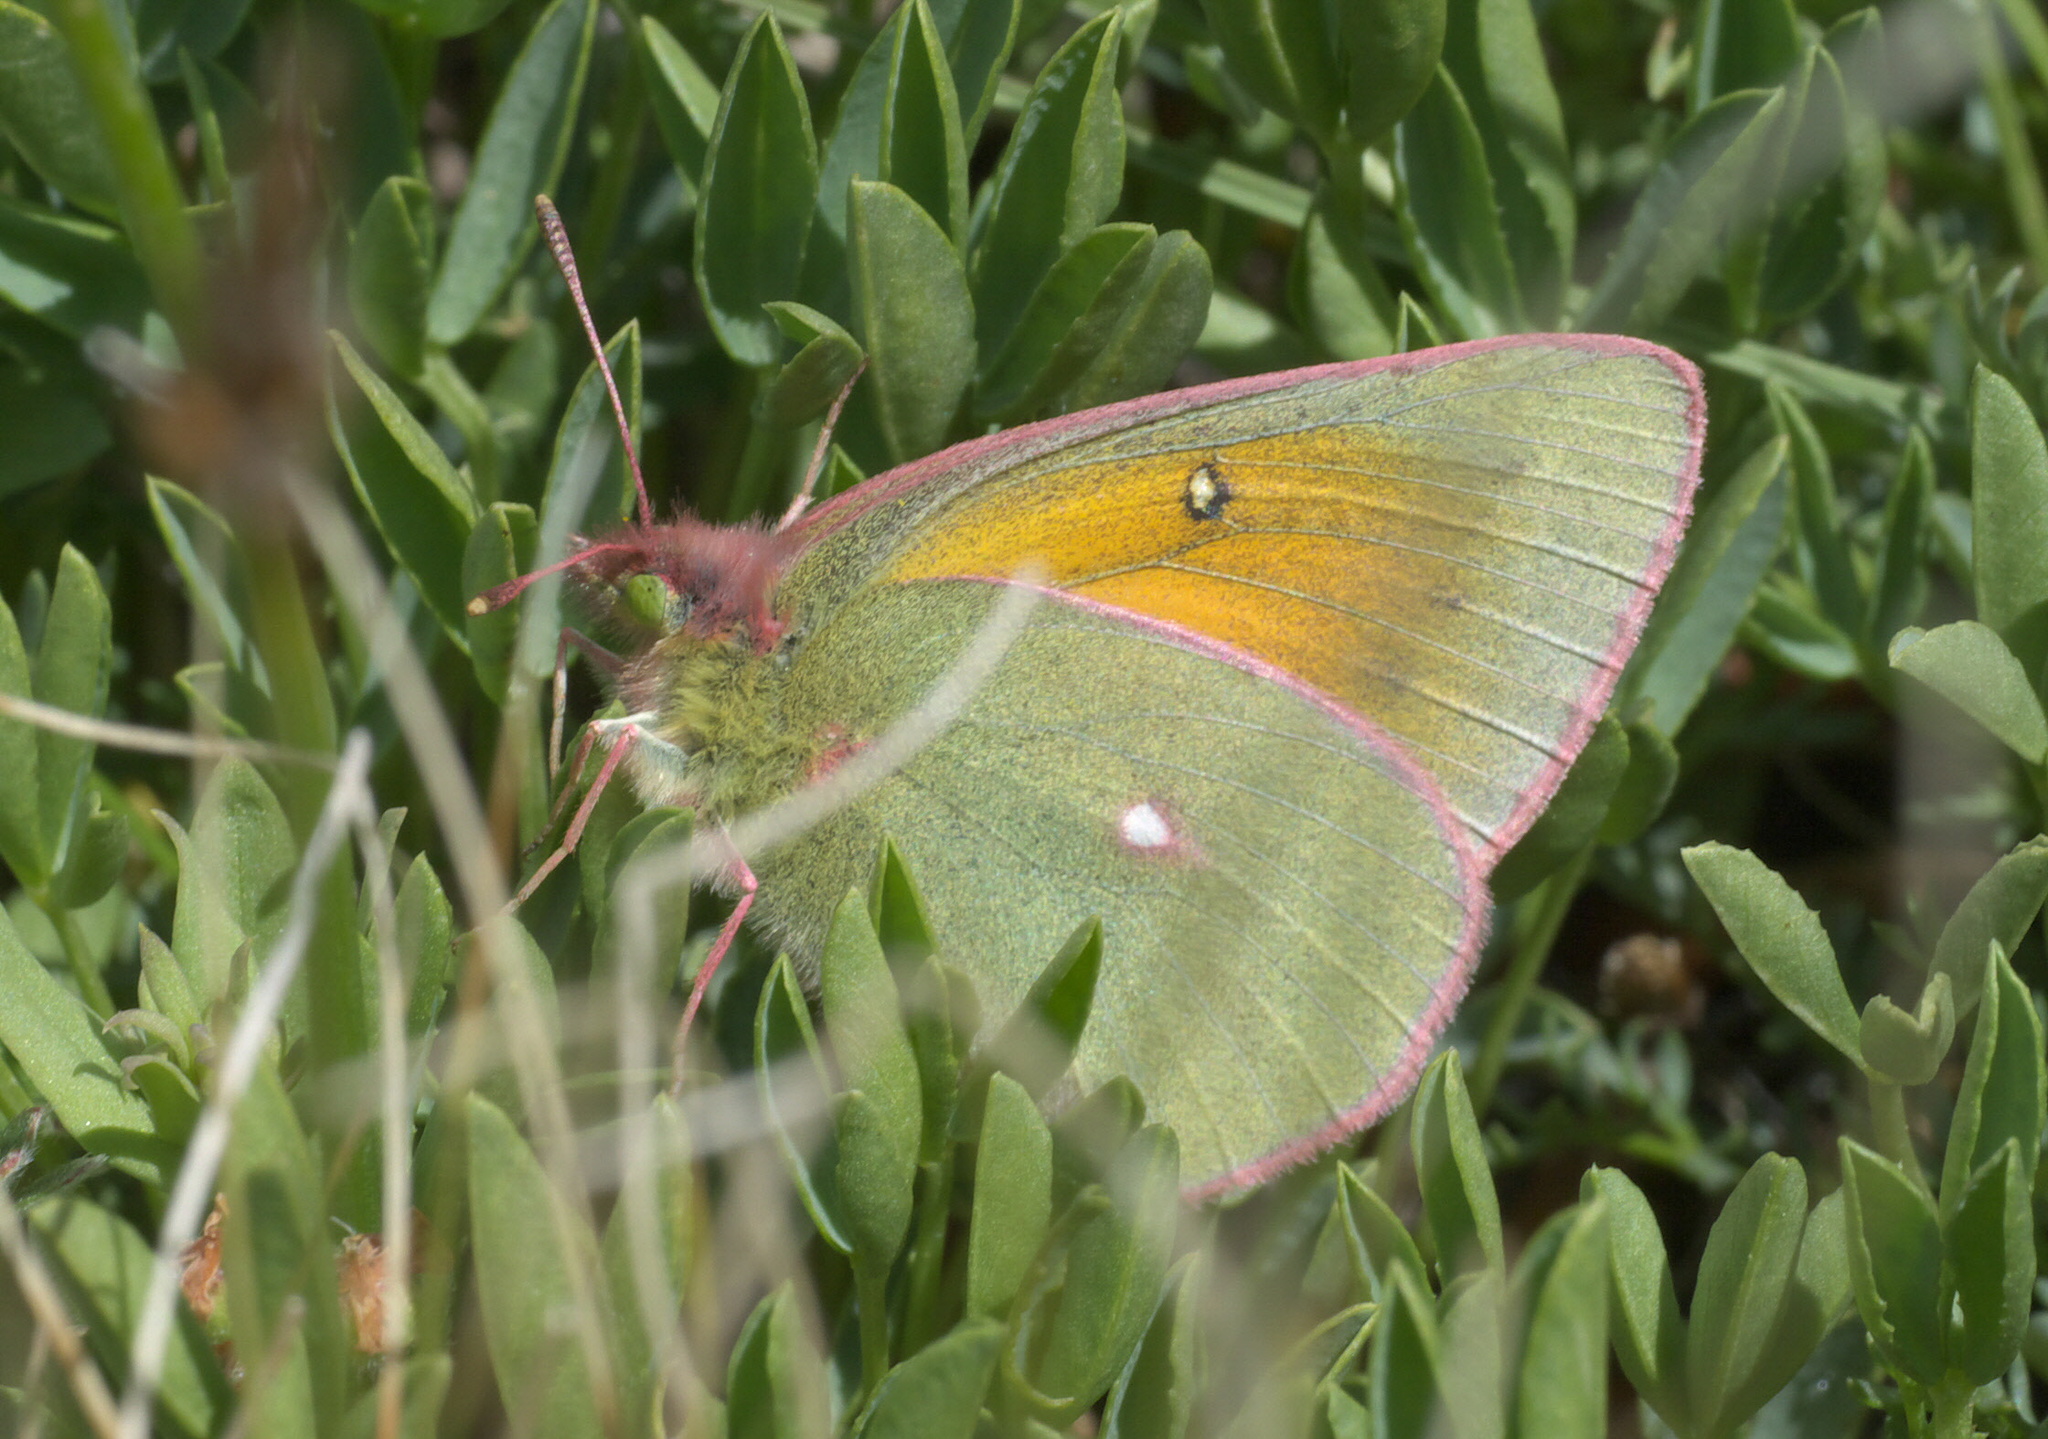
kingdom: Animalia
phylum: Arthropoda
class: Insecta
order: Lepidoptera
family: Pieridae
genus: Colias
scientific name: Colias meadii
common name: Mead's sulphur
